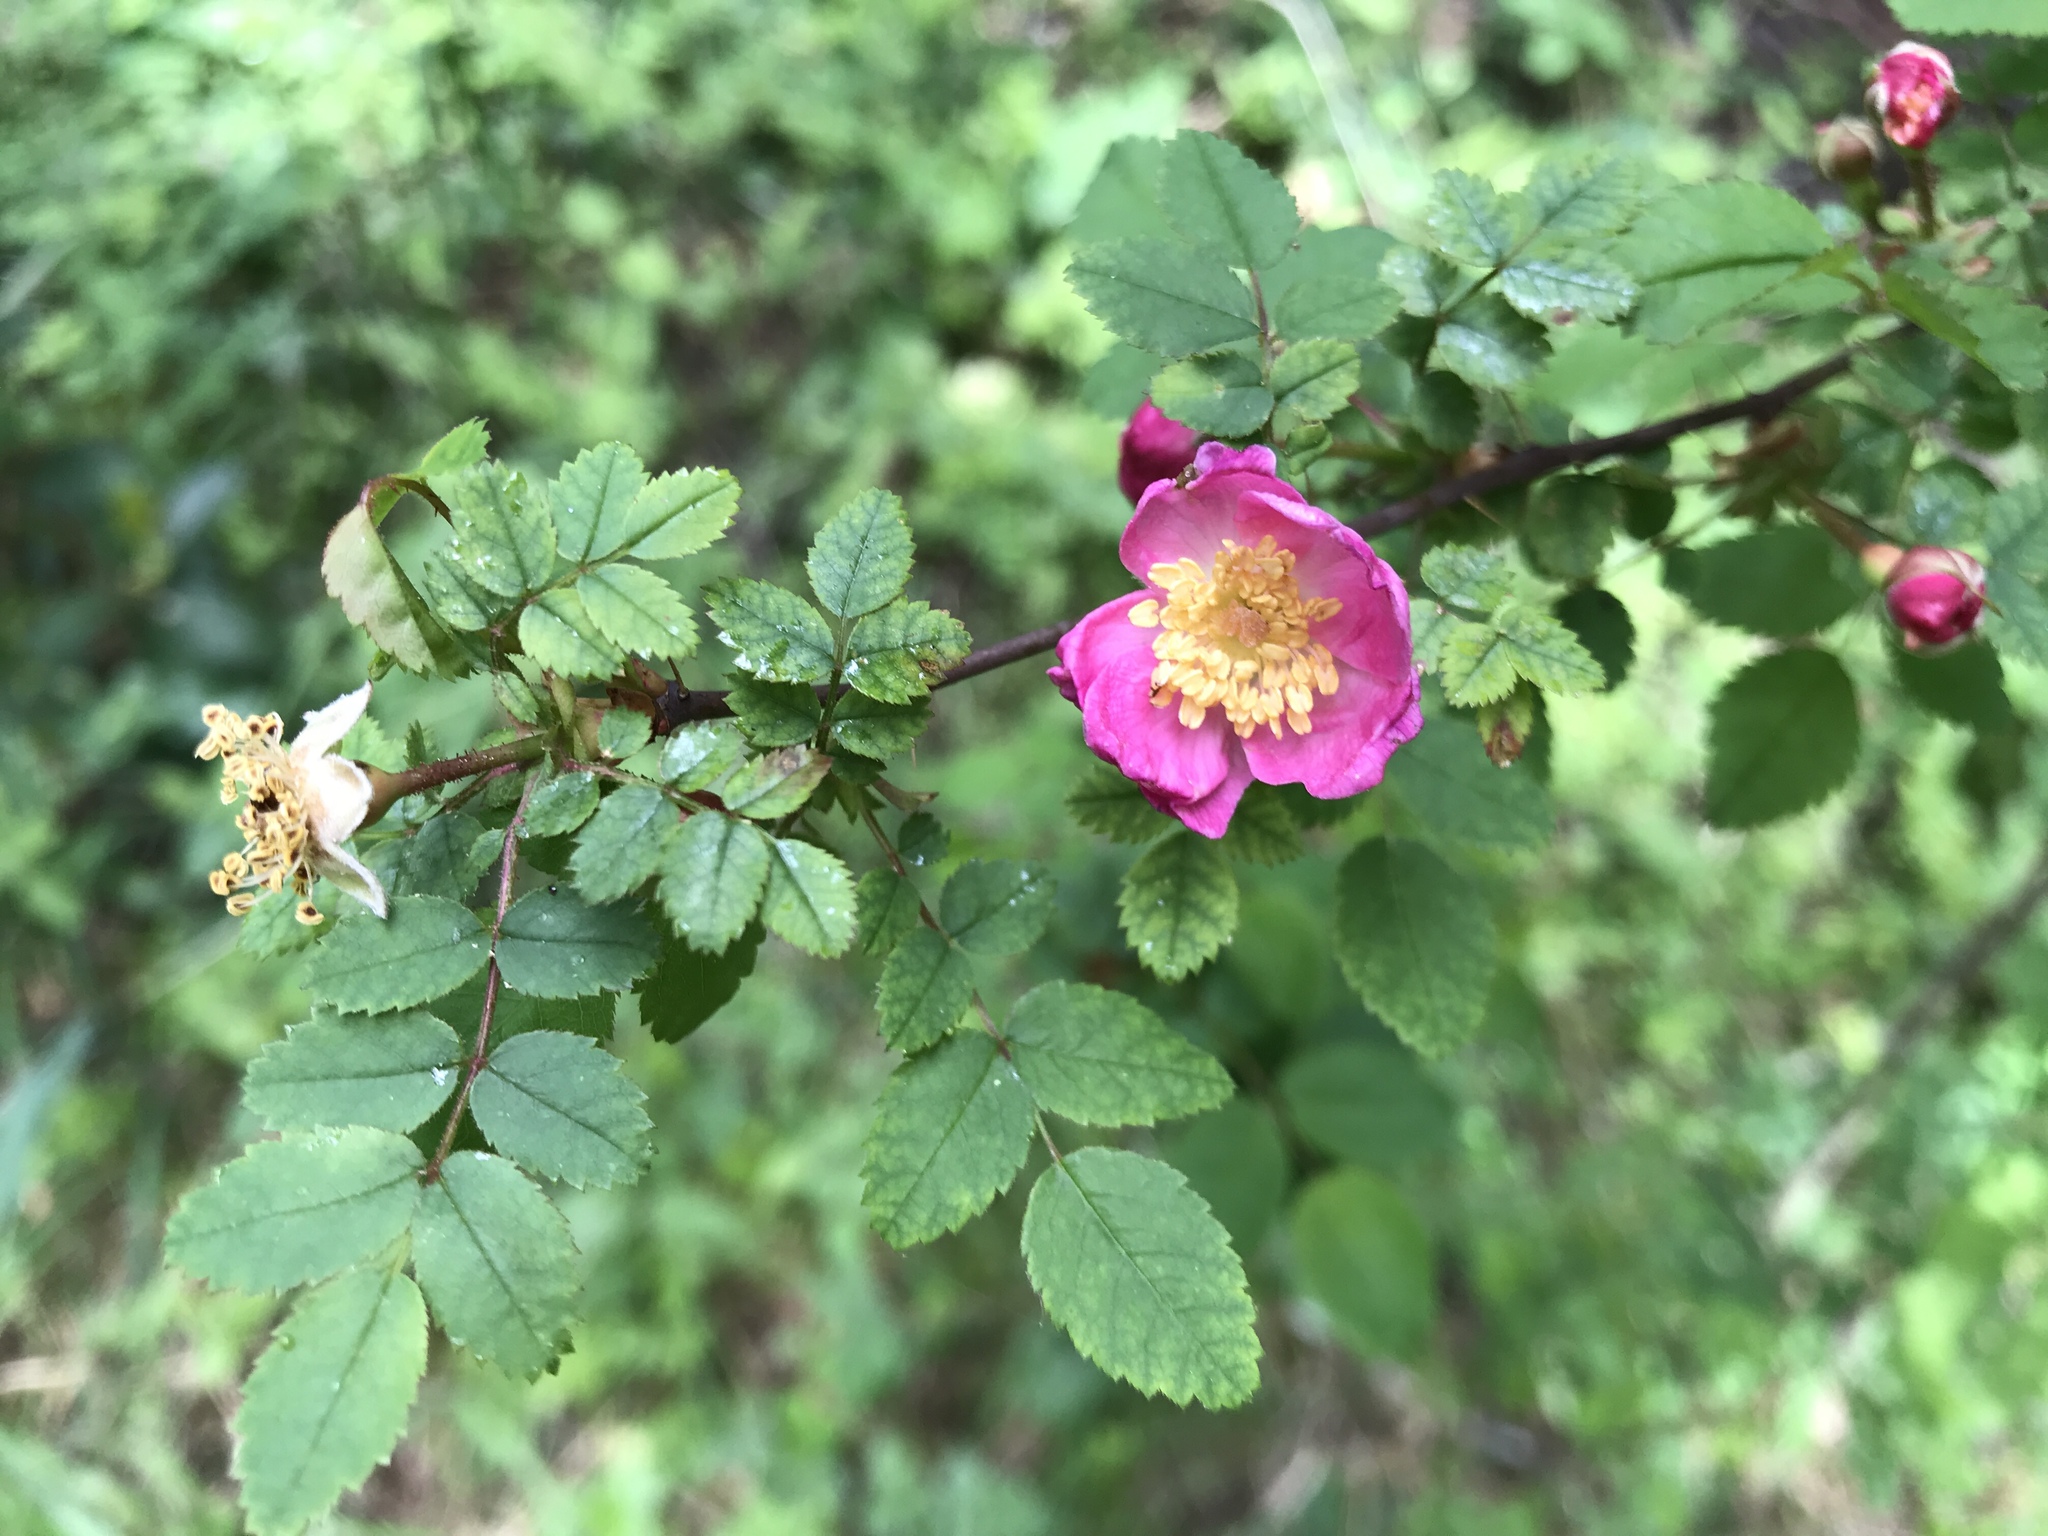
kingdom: Plantae
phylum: Tracheophyta
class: Magnoliopsida
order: Rosales
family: Rosaceae
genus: Rosa
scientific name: Rosa gymnocarpa
